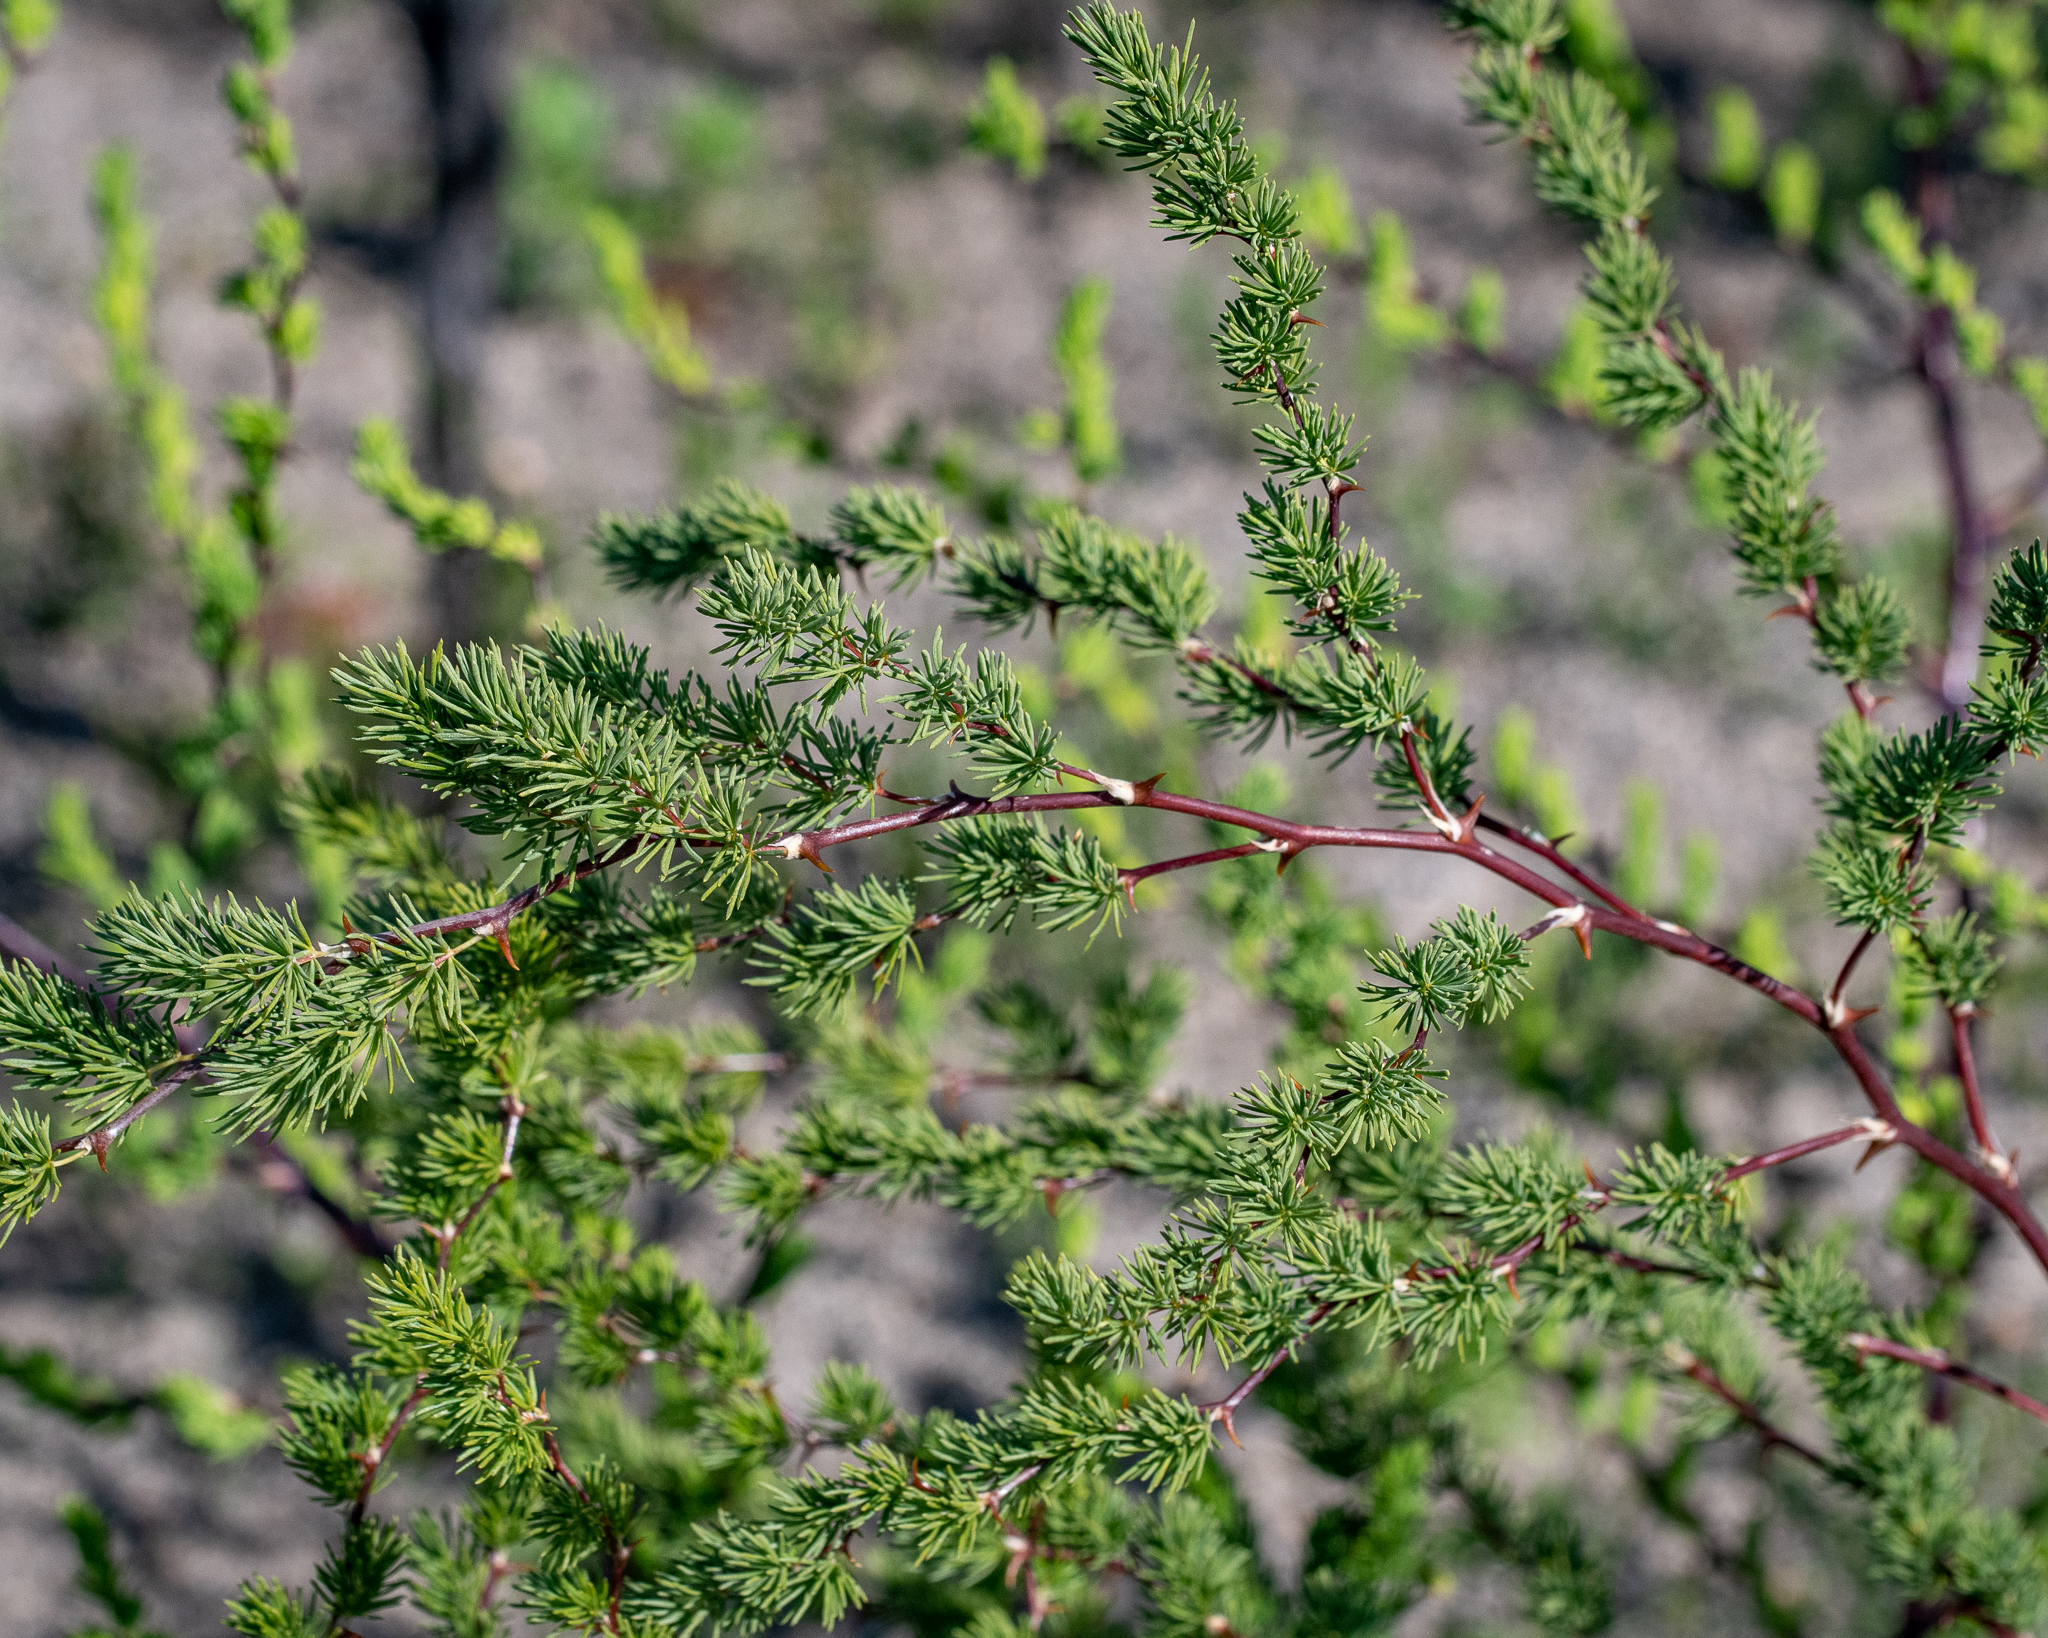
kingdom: Plantae
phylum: Tracheophyta
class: Liliopsida
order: Asparagales
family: Asparagaceae
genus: Asparagus
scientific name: Asparagus rubicundus
